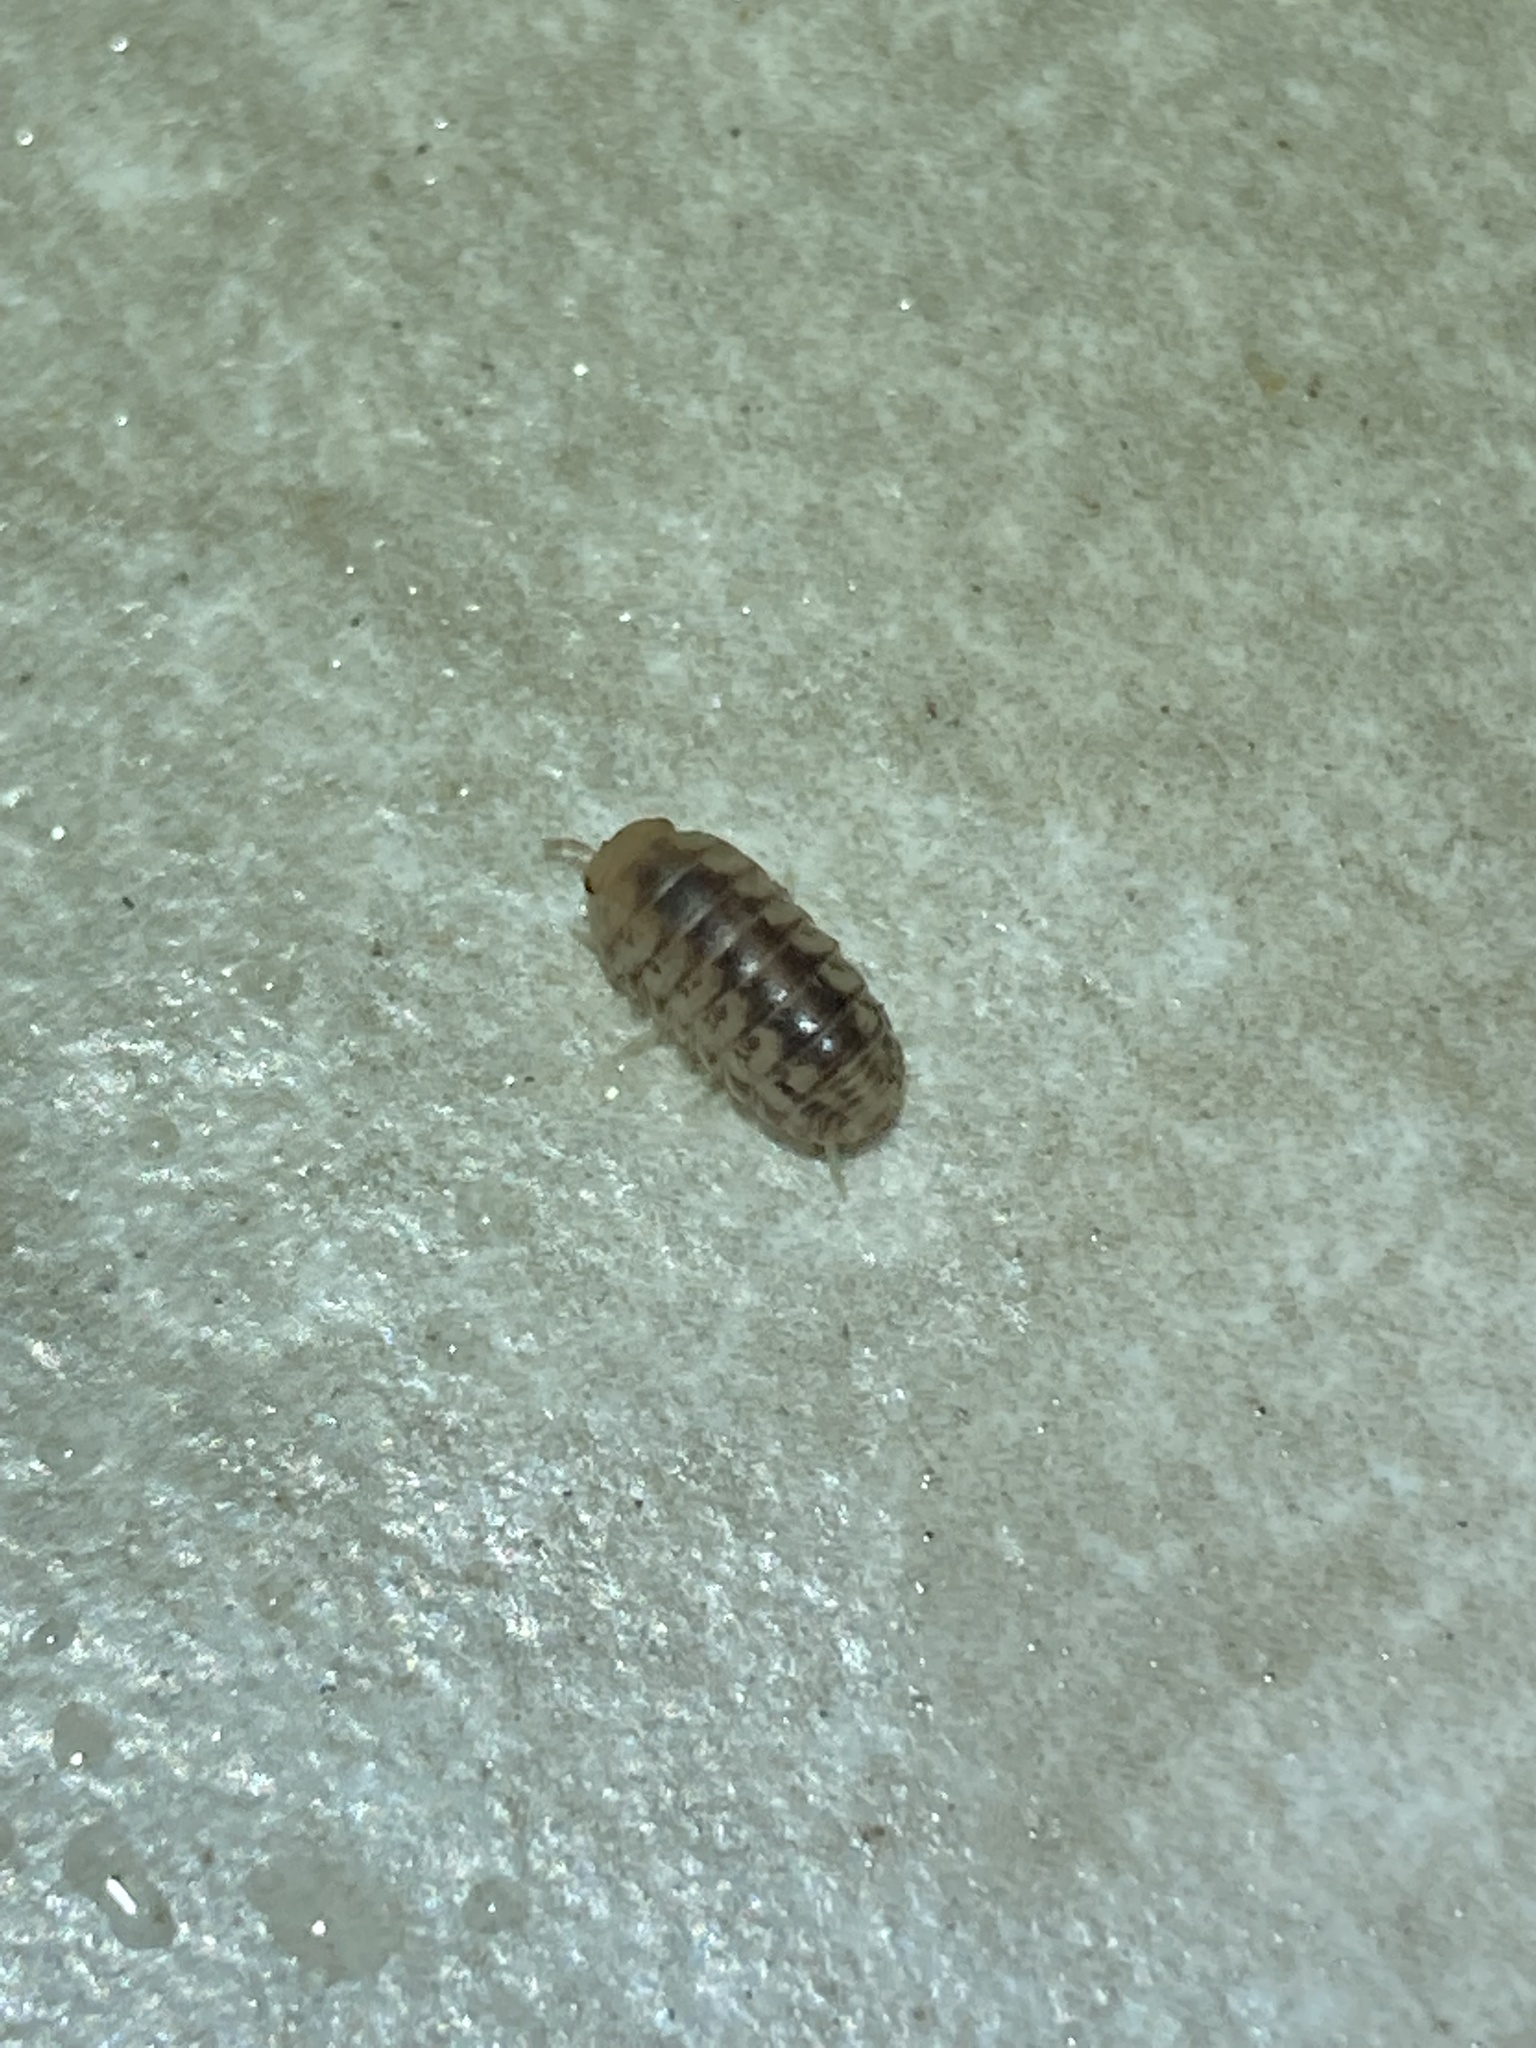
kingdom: Animalia
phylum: Arthropoda
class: Malacostraca
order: Isopoda
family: Armadillidae
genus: Venezillo
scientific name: Venezillo parvus
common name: Pillbug
